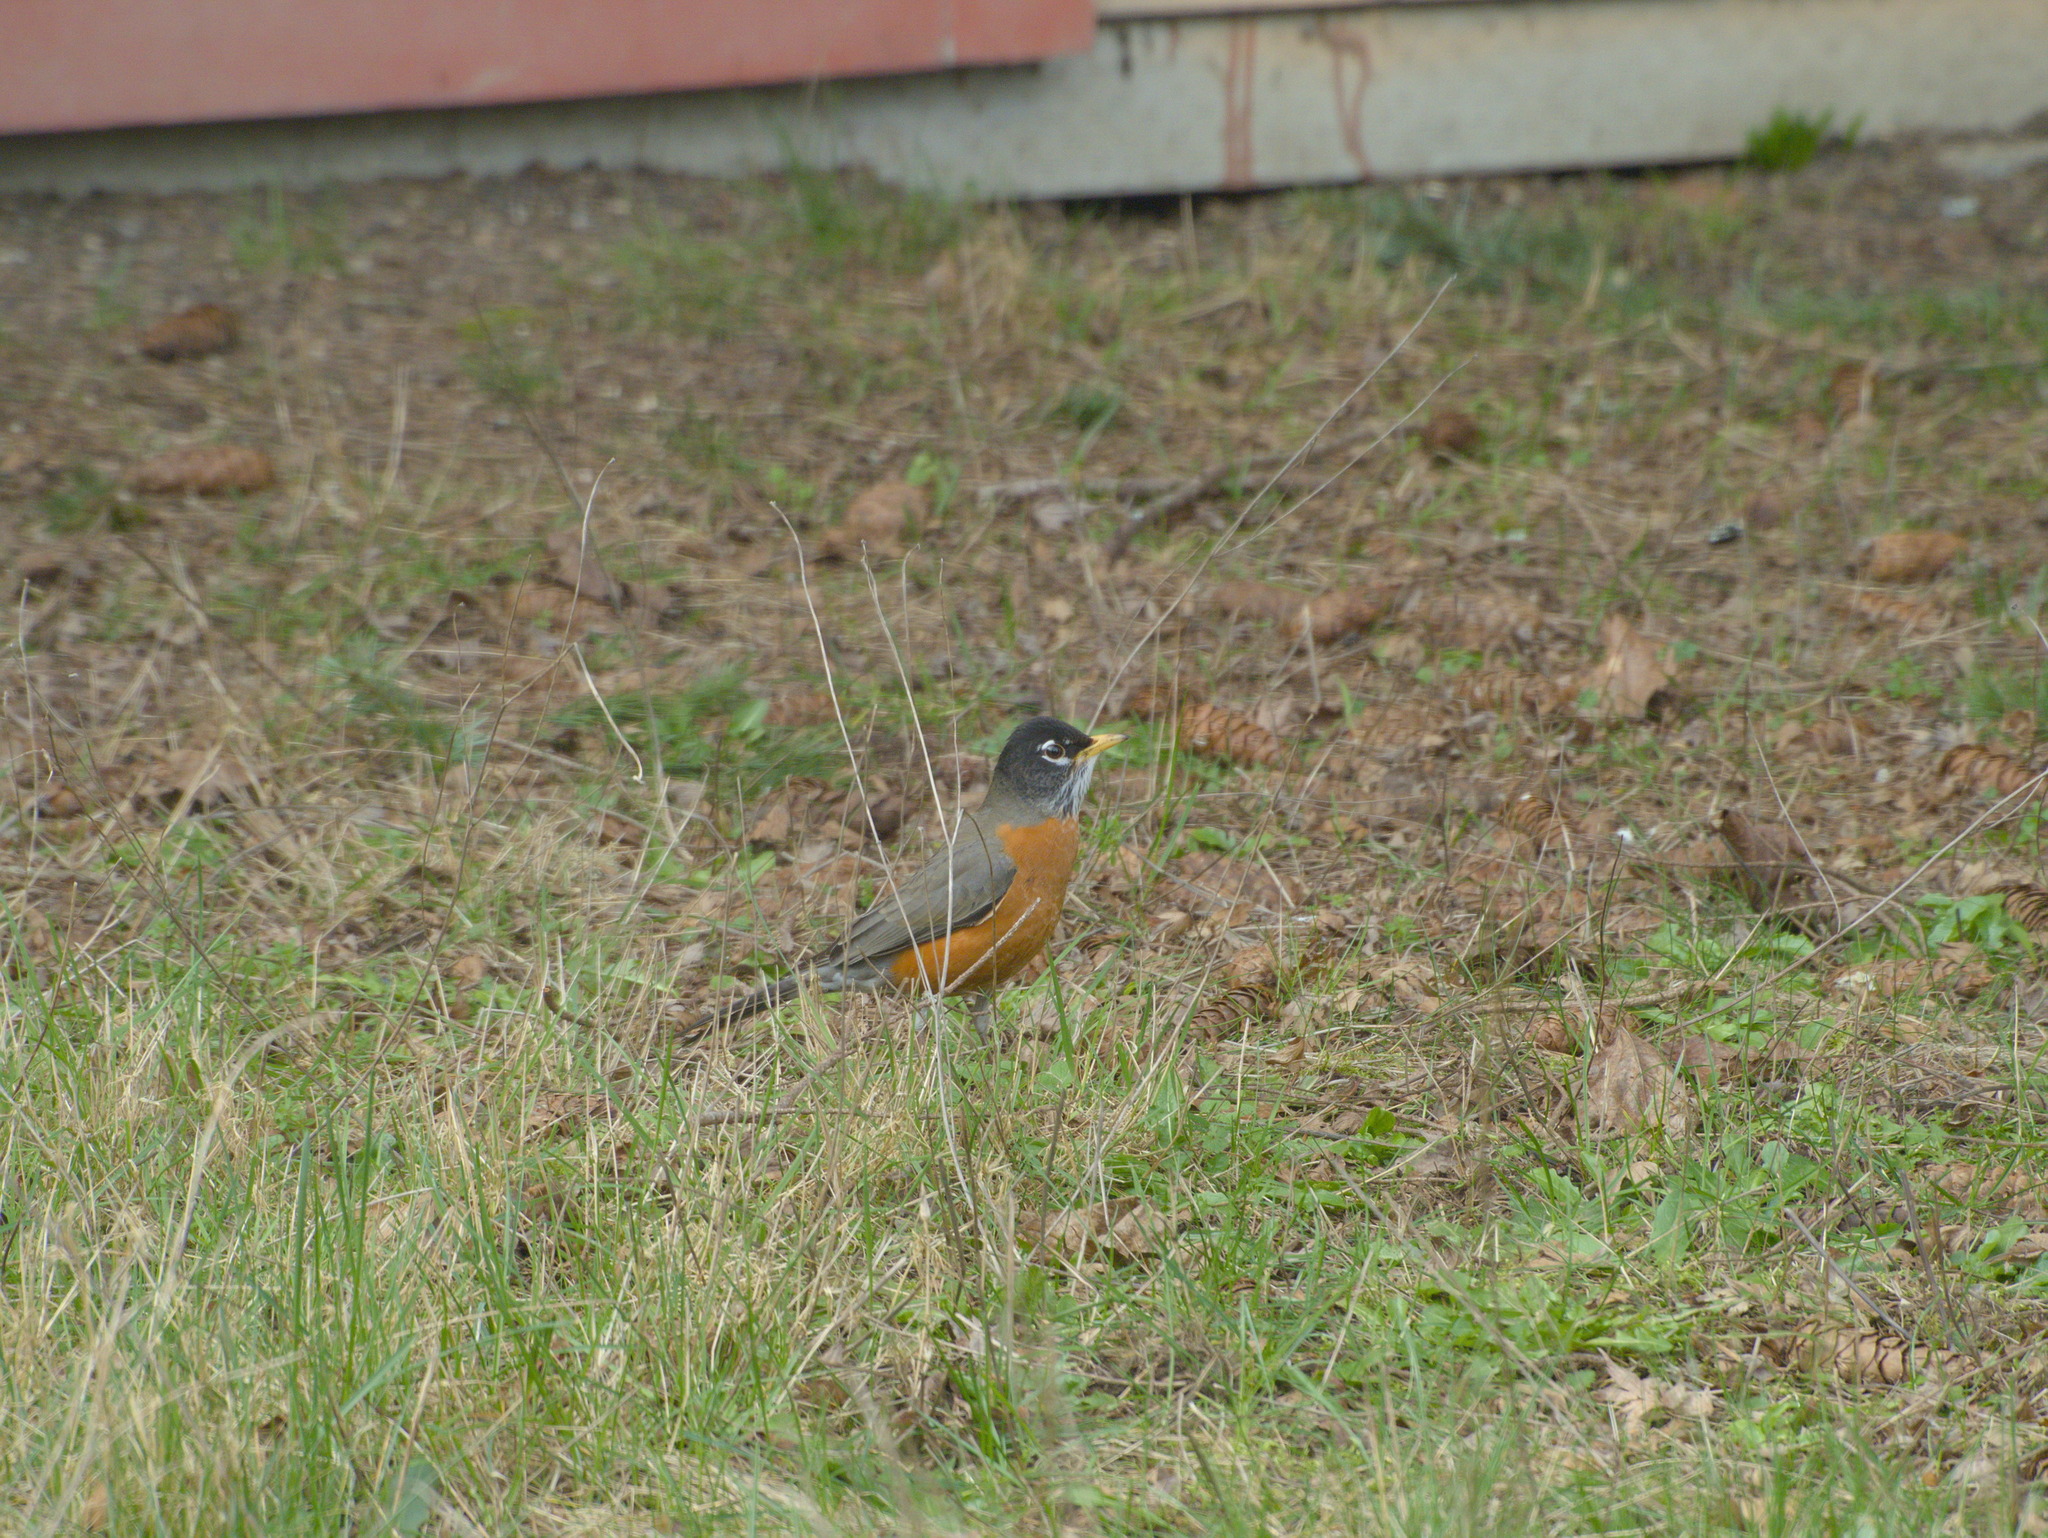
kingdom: Animalia
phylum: Chordata
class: Aves
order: Passeriformes
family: Turdidae
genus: Turdus
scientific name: Turdus migratorius
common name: American robin
